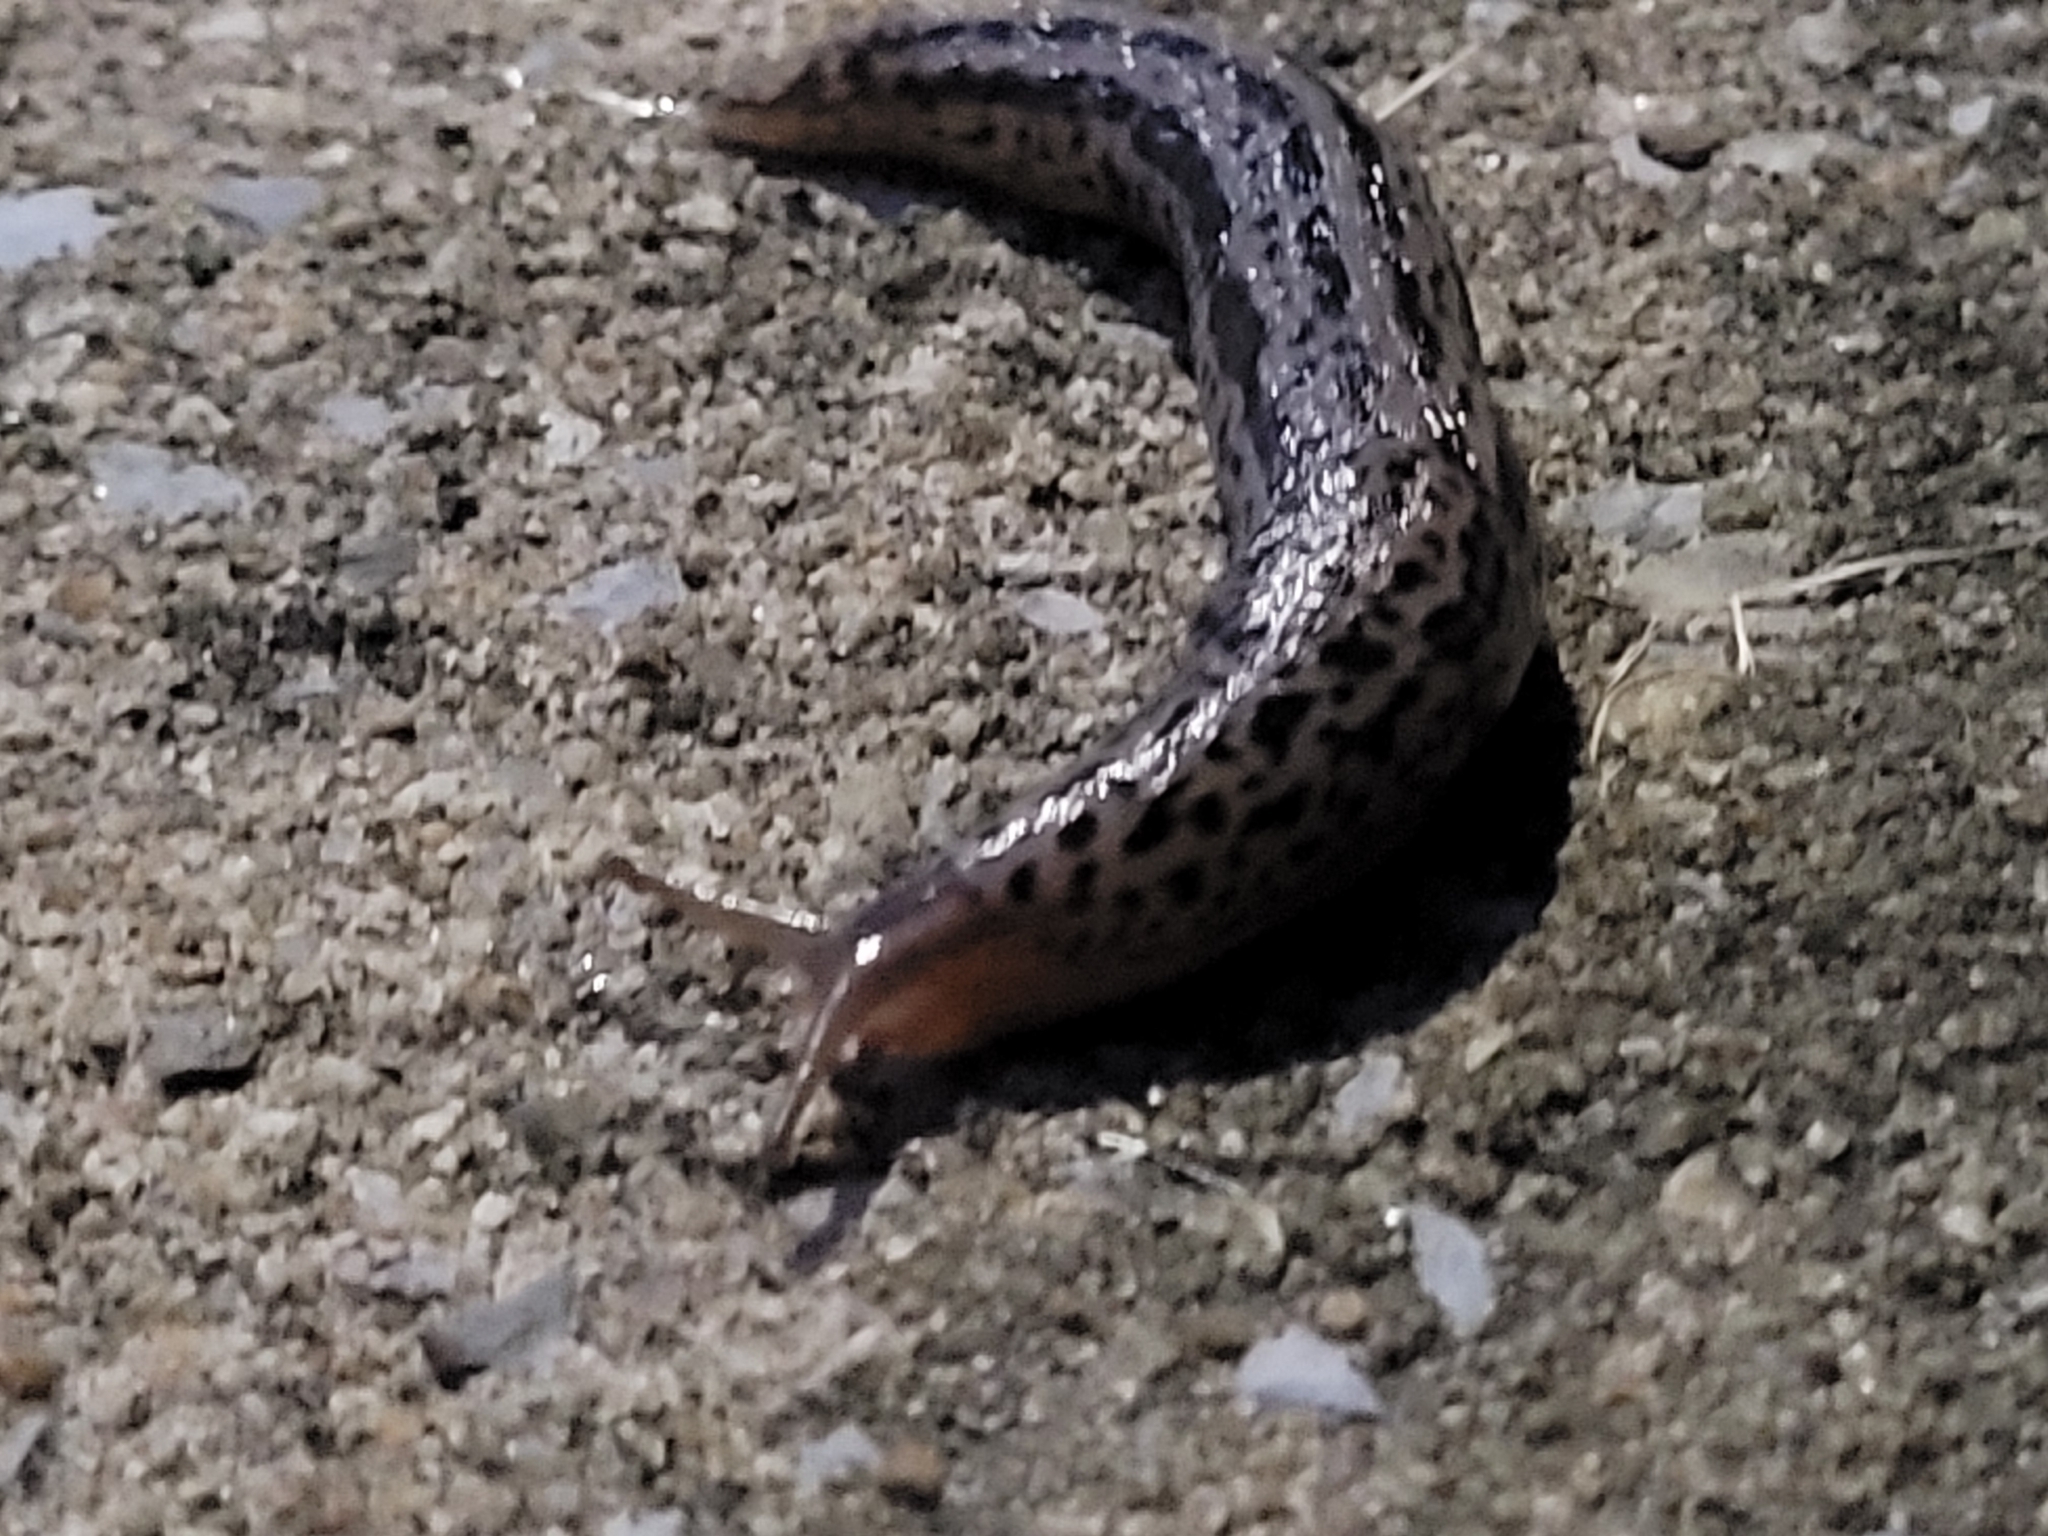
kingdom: Animalia
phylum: Mollusca
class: Gastropoda
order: Stylommatophora
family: Limacidae
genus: Limax
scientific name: Limax maximus
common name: Great grey slug
